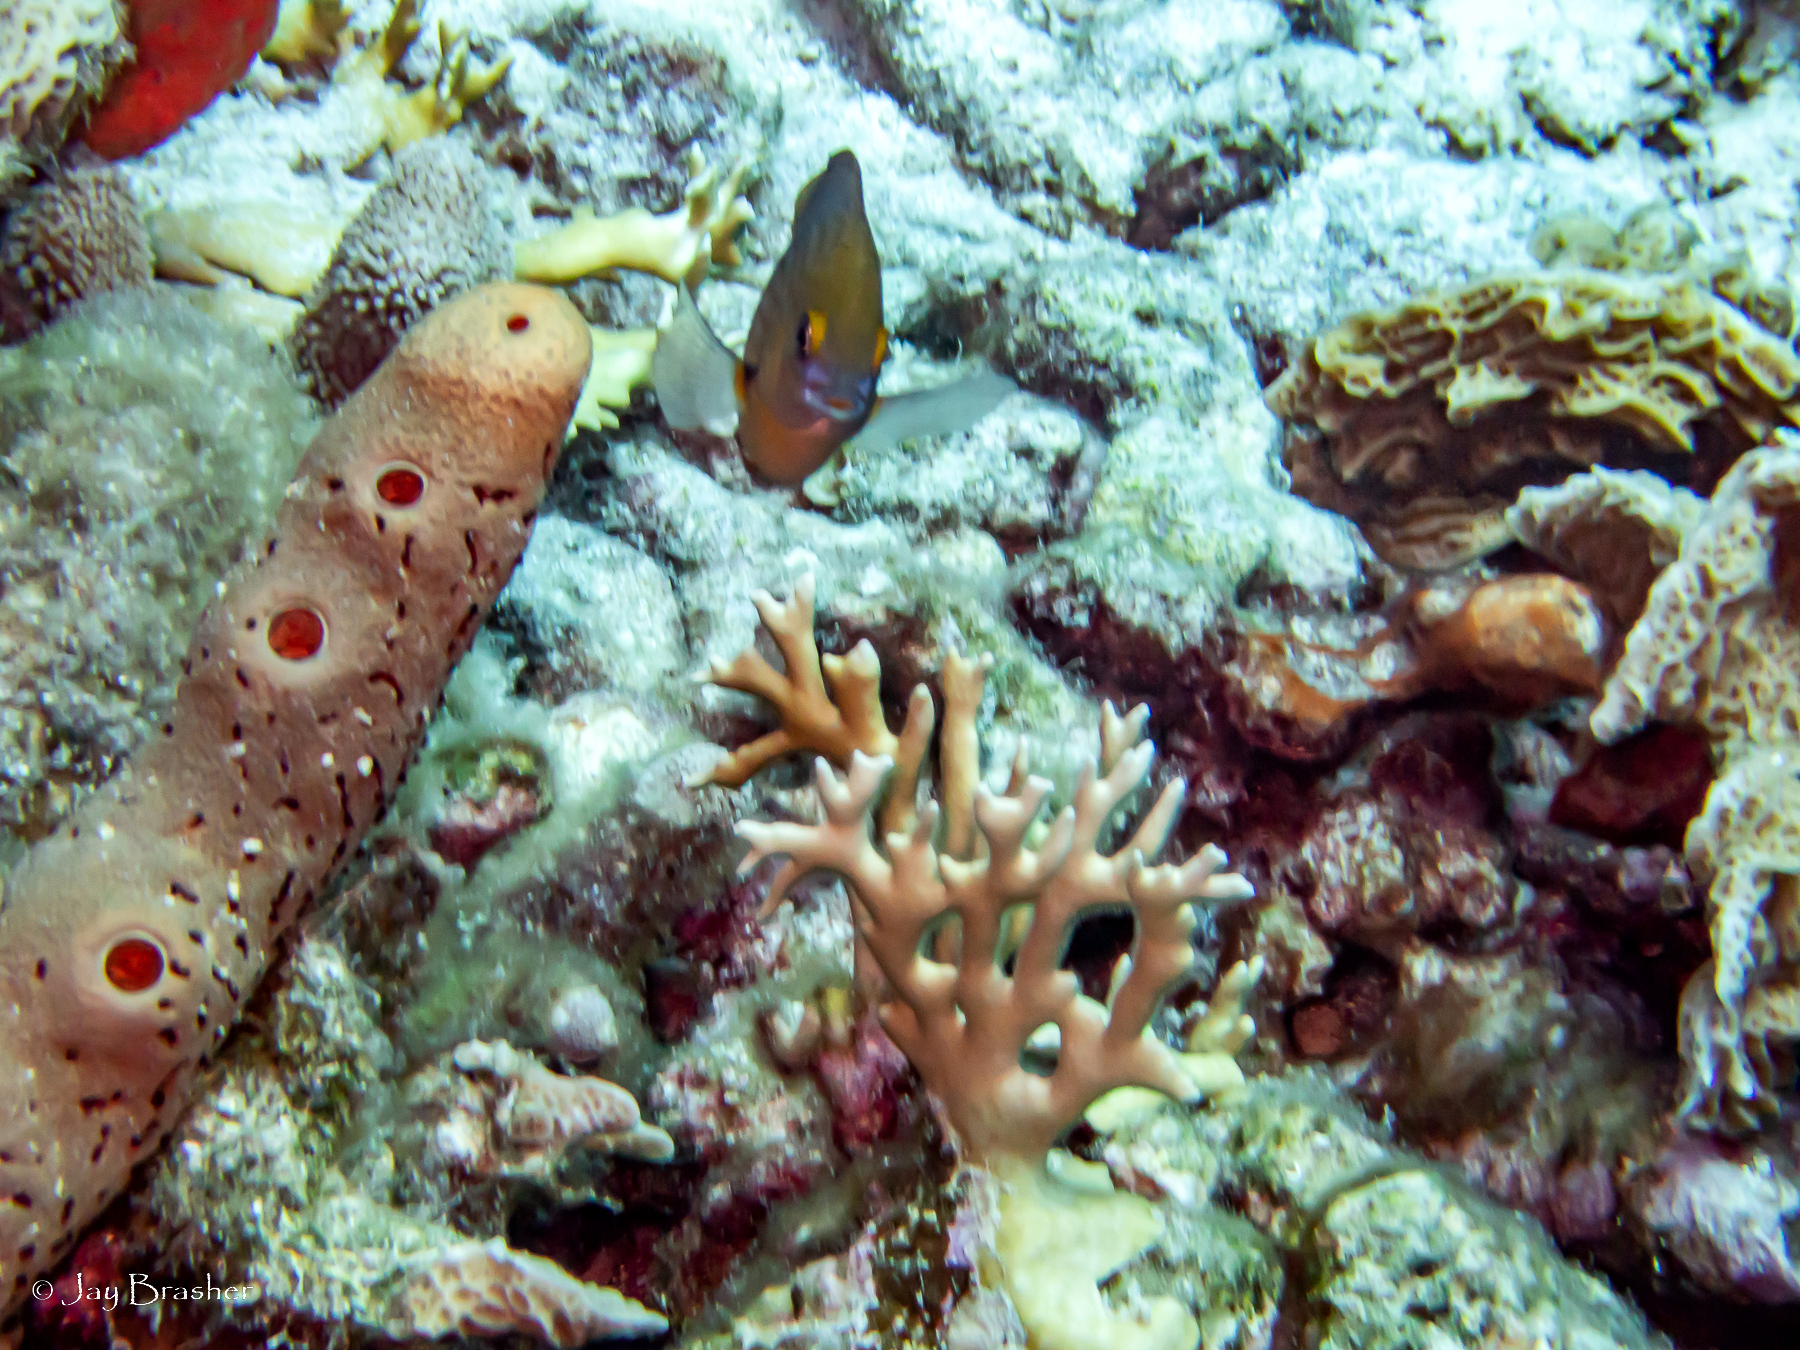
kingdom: Animalia
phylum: Chordata
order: Perciformes
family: Pomacentridae
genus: Stegastes
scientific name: Stegastes planifrons
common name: Threespot damselfish
